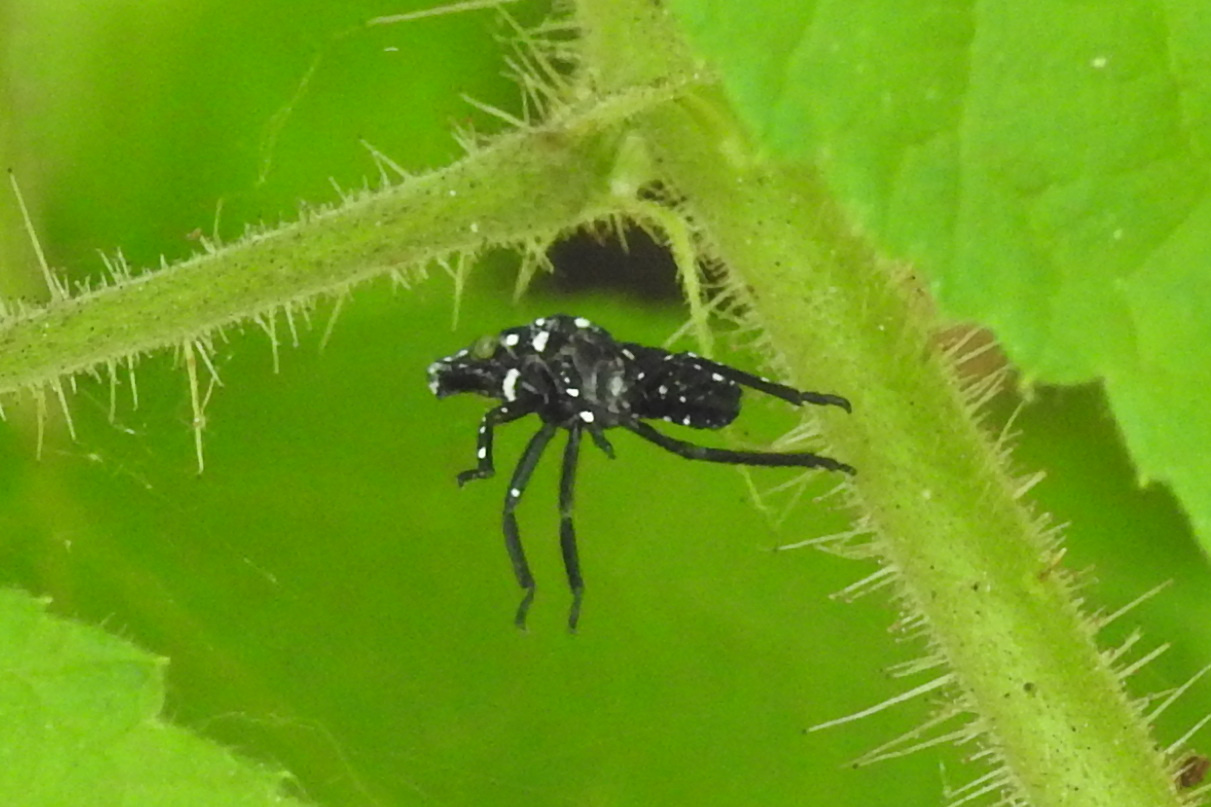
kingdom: Animalia
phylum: Arthropoda
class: Insecta
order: Hemiptera
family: Fulgoridae
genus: Lycorma
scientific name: Lycorma delicatula
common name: Spotted lanternfly
